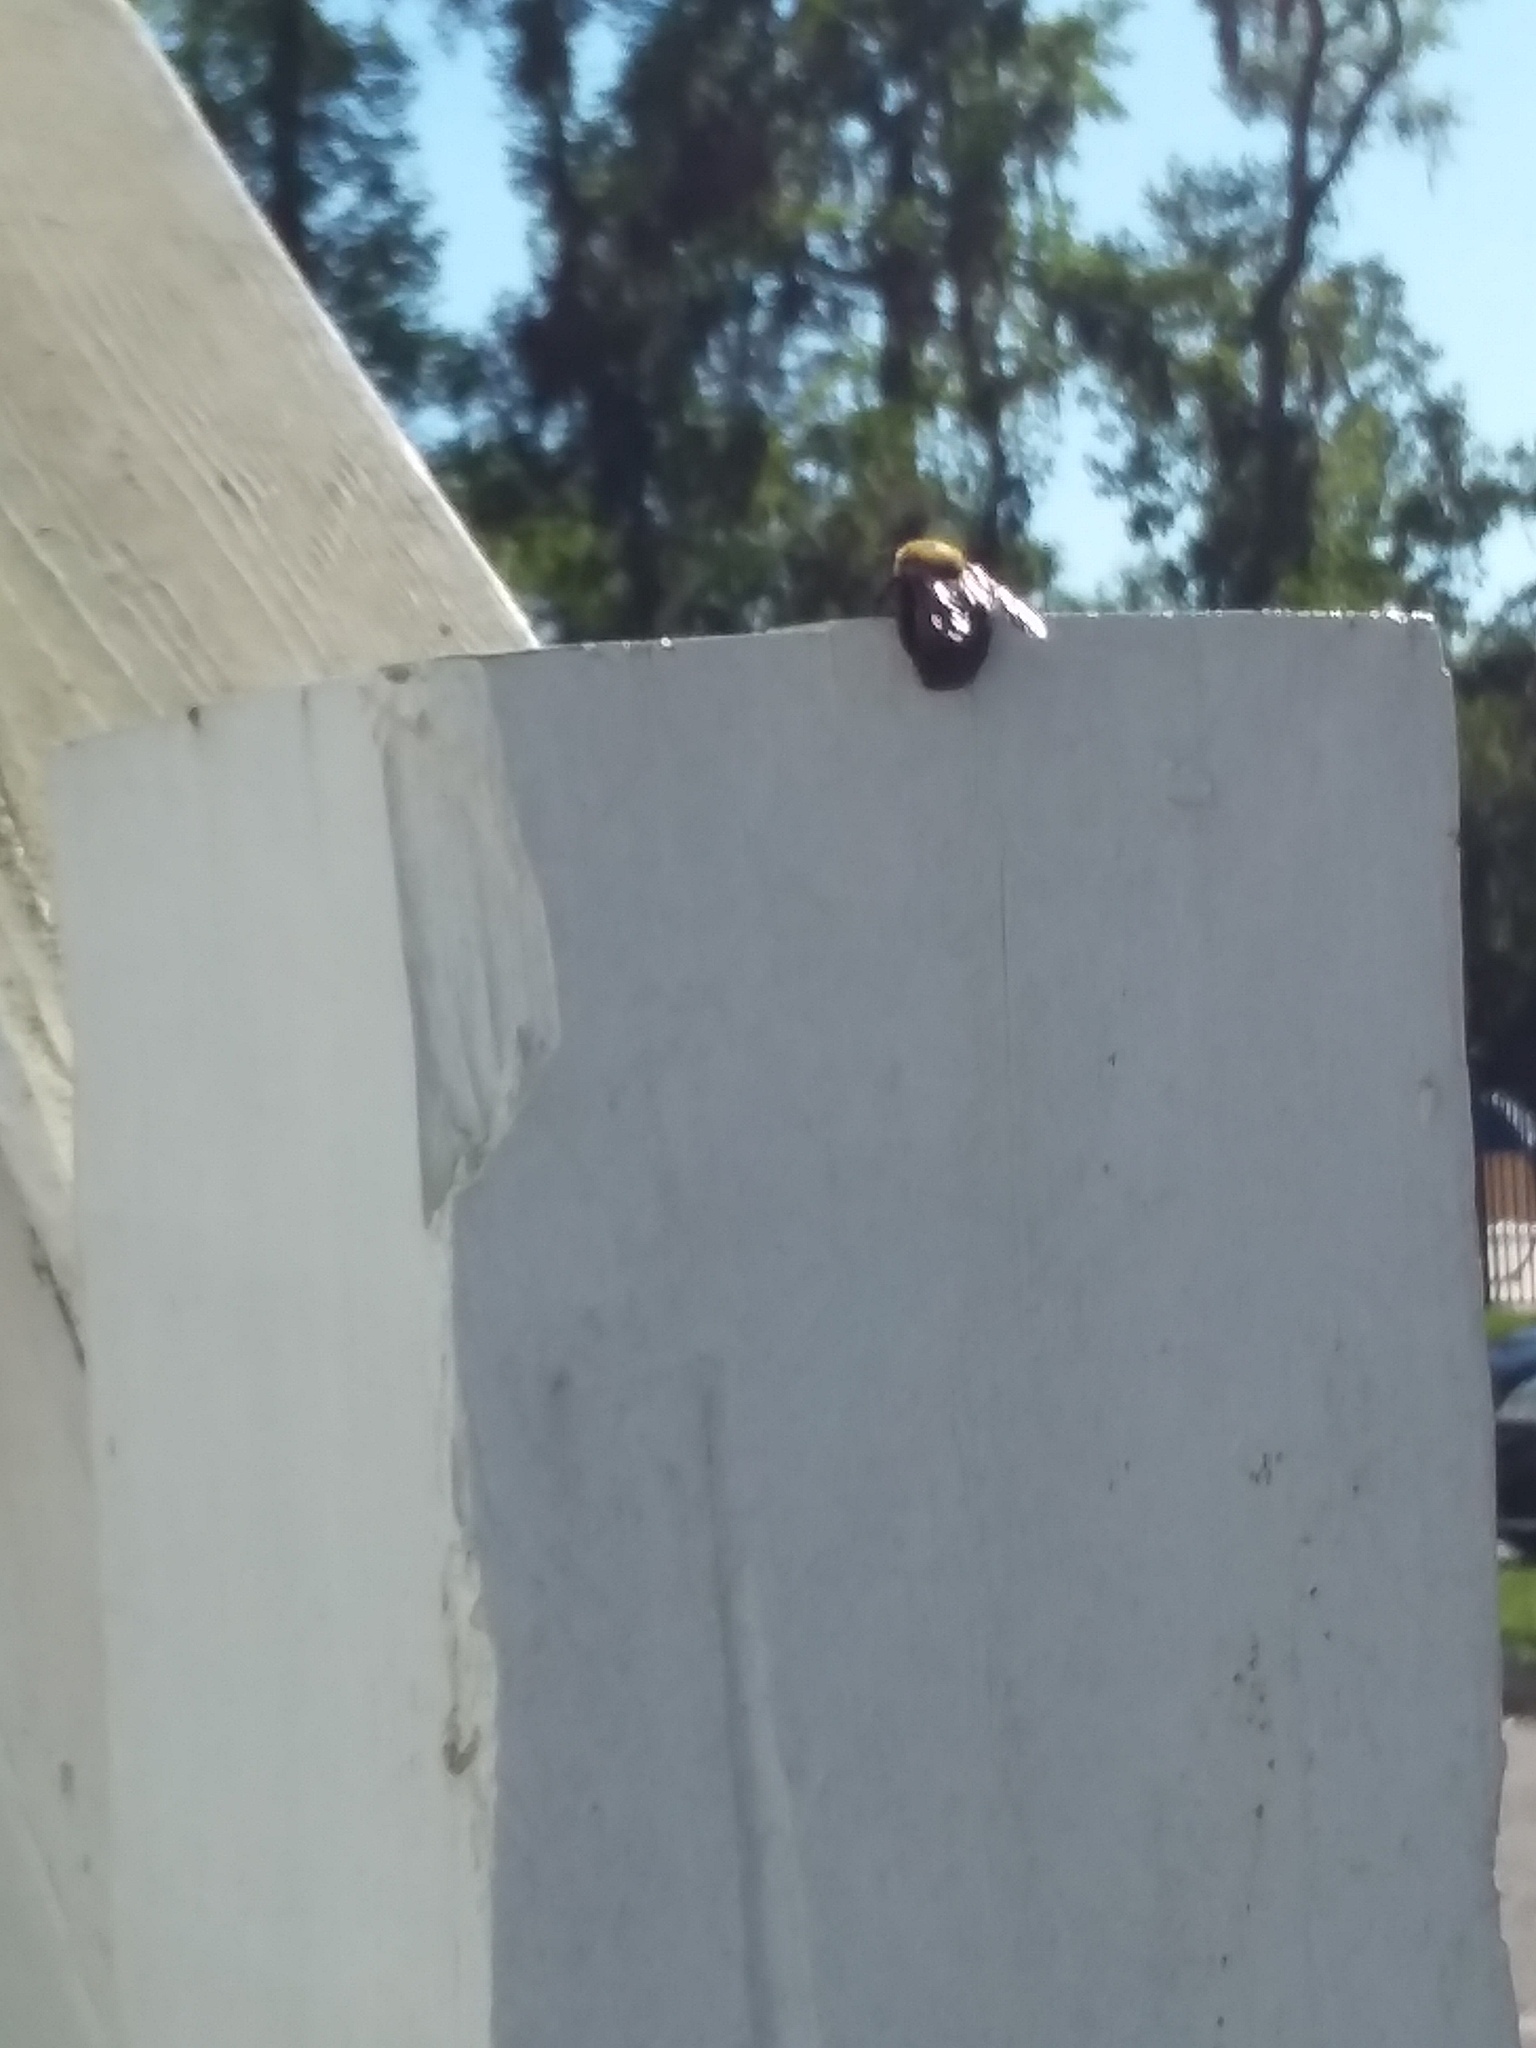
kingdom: Animalia
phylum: Arthropoda
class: Insecta
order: Hymenoptera
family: Apidae
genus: Xylocopa
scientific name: Xylocopa virginica
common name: Carpenter bee
